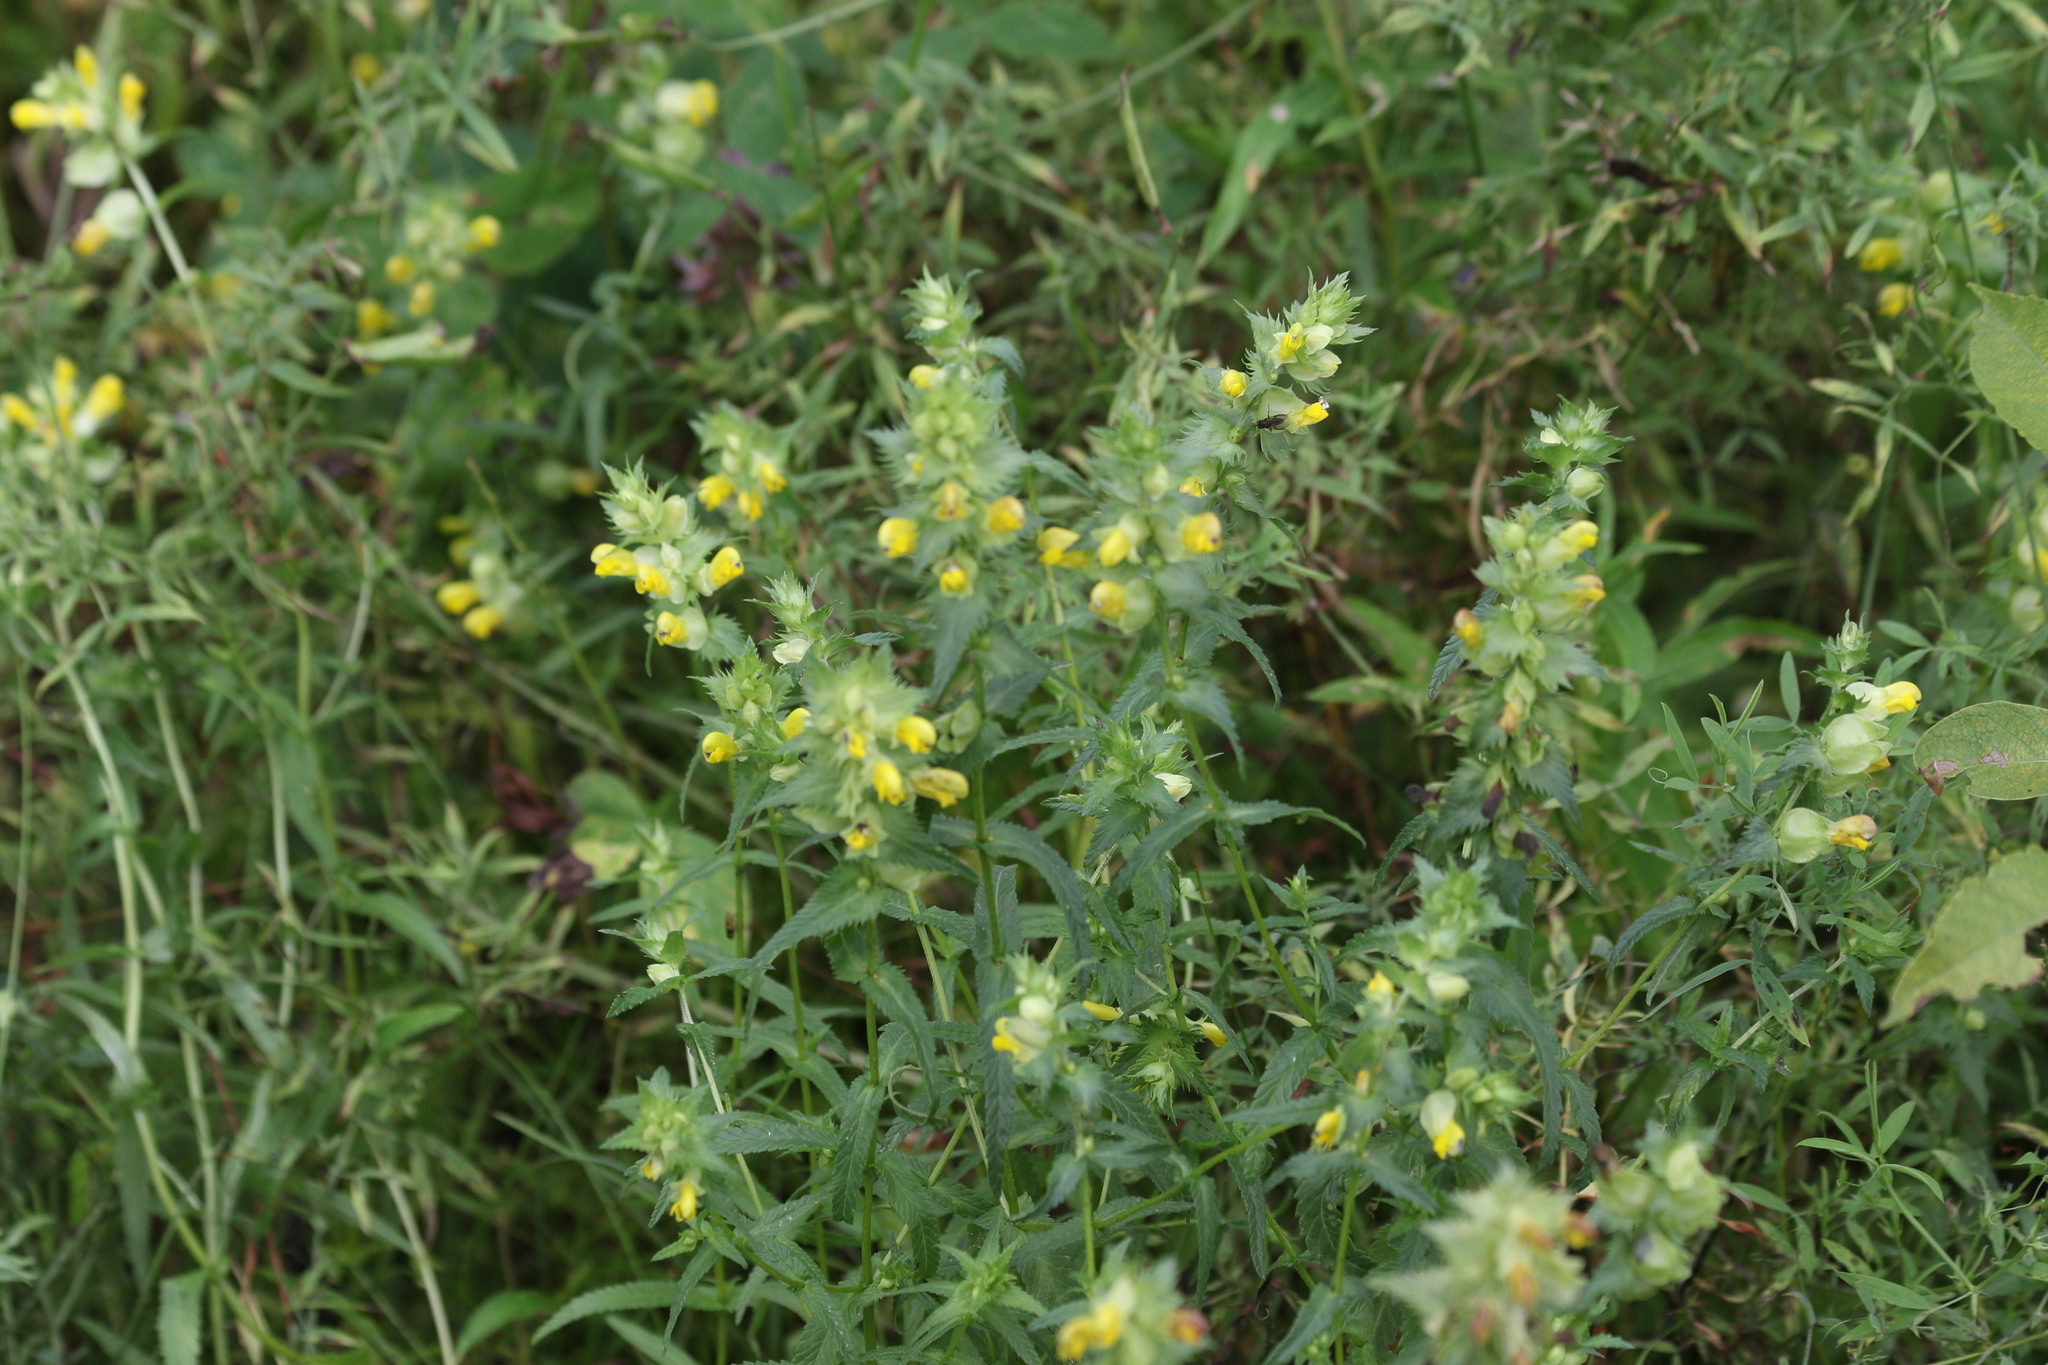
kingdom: Plantae
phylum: Tracheophyta
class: Magnoliopsida
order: Lamiales
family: Orobanchaceae
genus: Rhinanthus
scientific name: Rhinanthus serotinus
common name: Late-flowering yellow rattle
